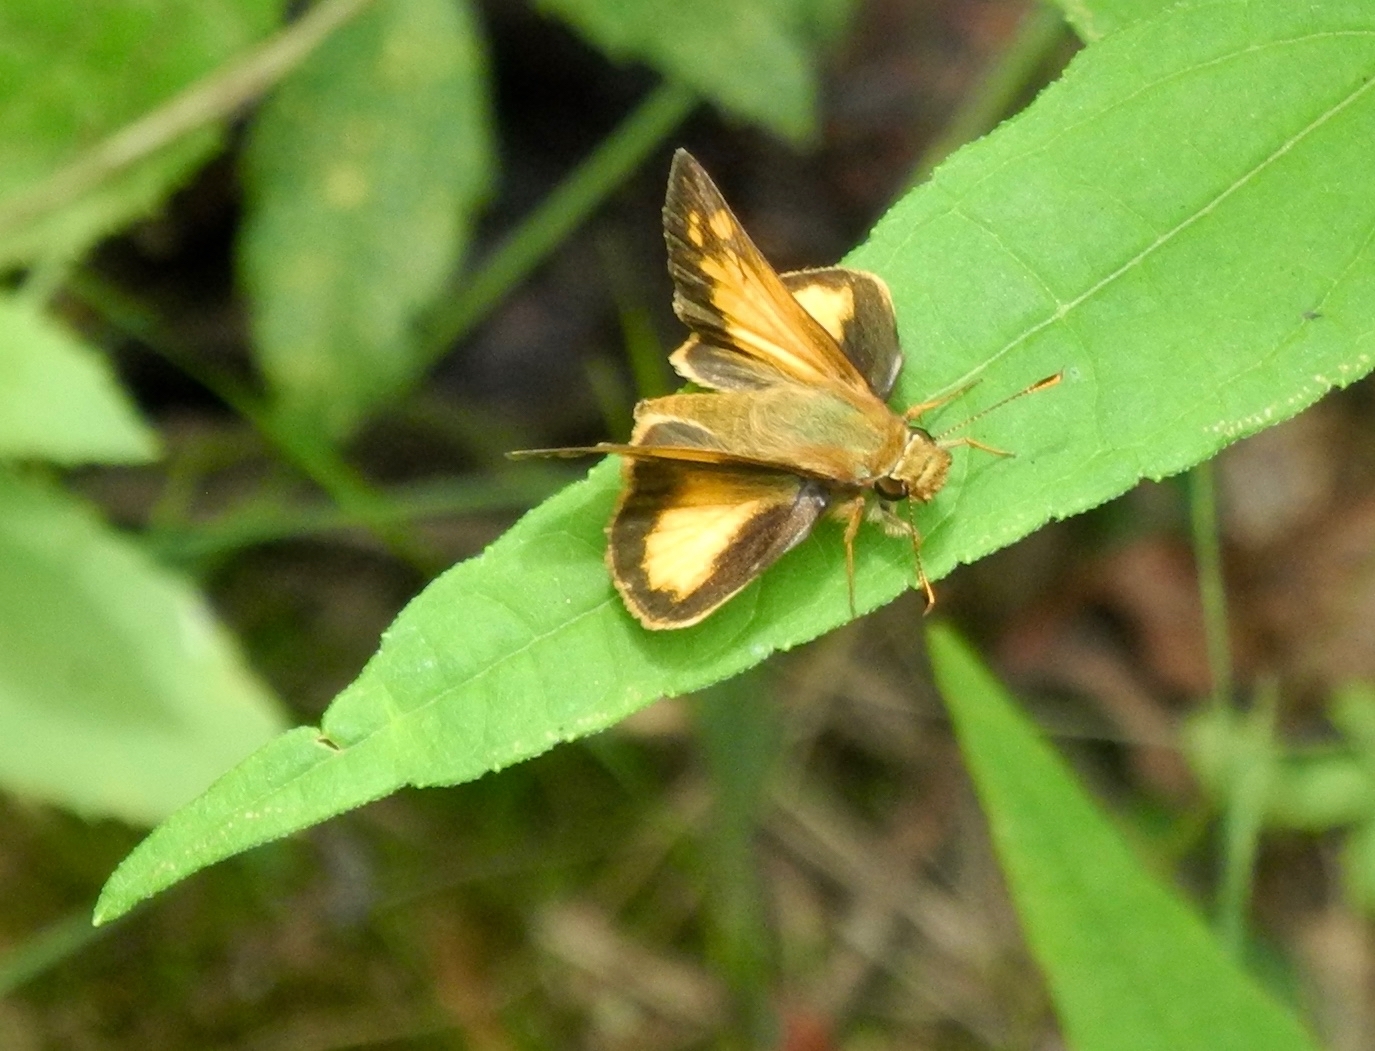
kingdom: Animalia
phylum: Arthropoda
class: Insecta
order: Lepidoptera
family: Hesperiidae
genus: Lon
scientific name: Lon zabulon
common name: Zabulon skipper
